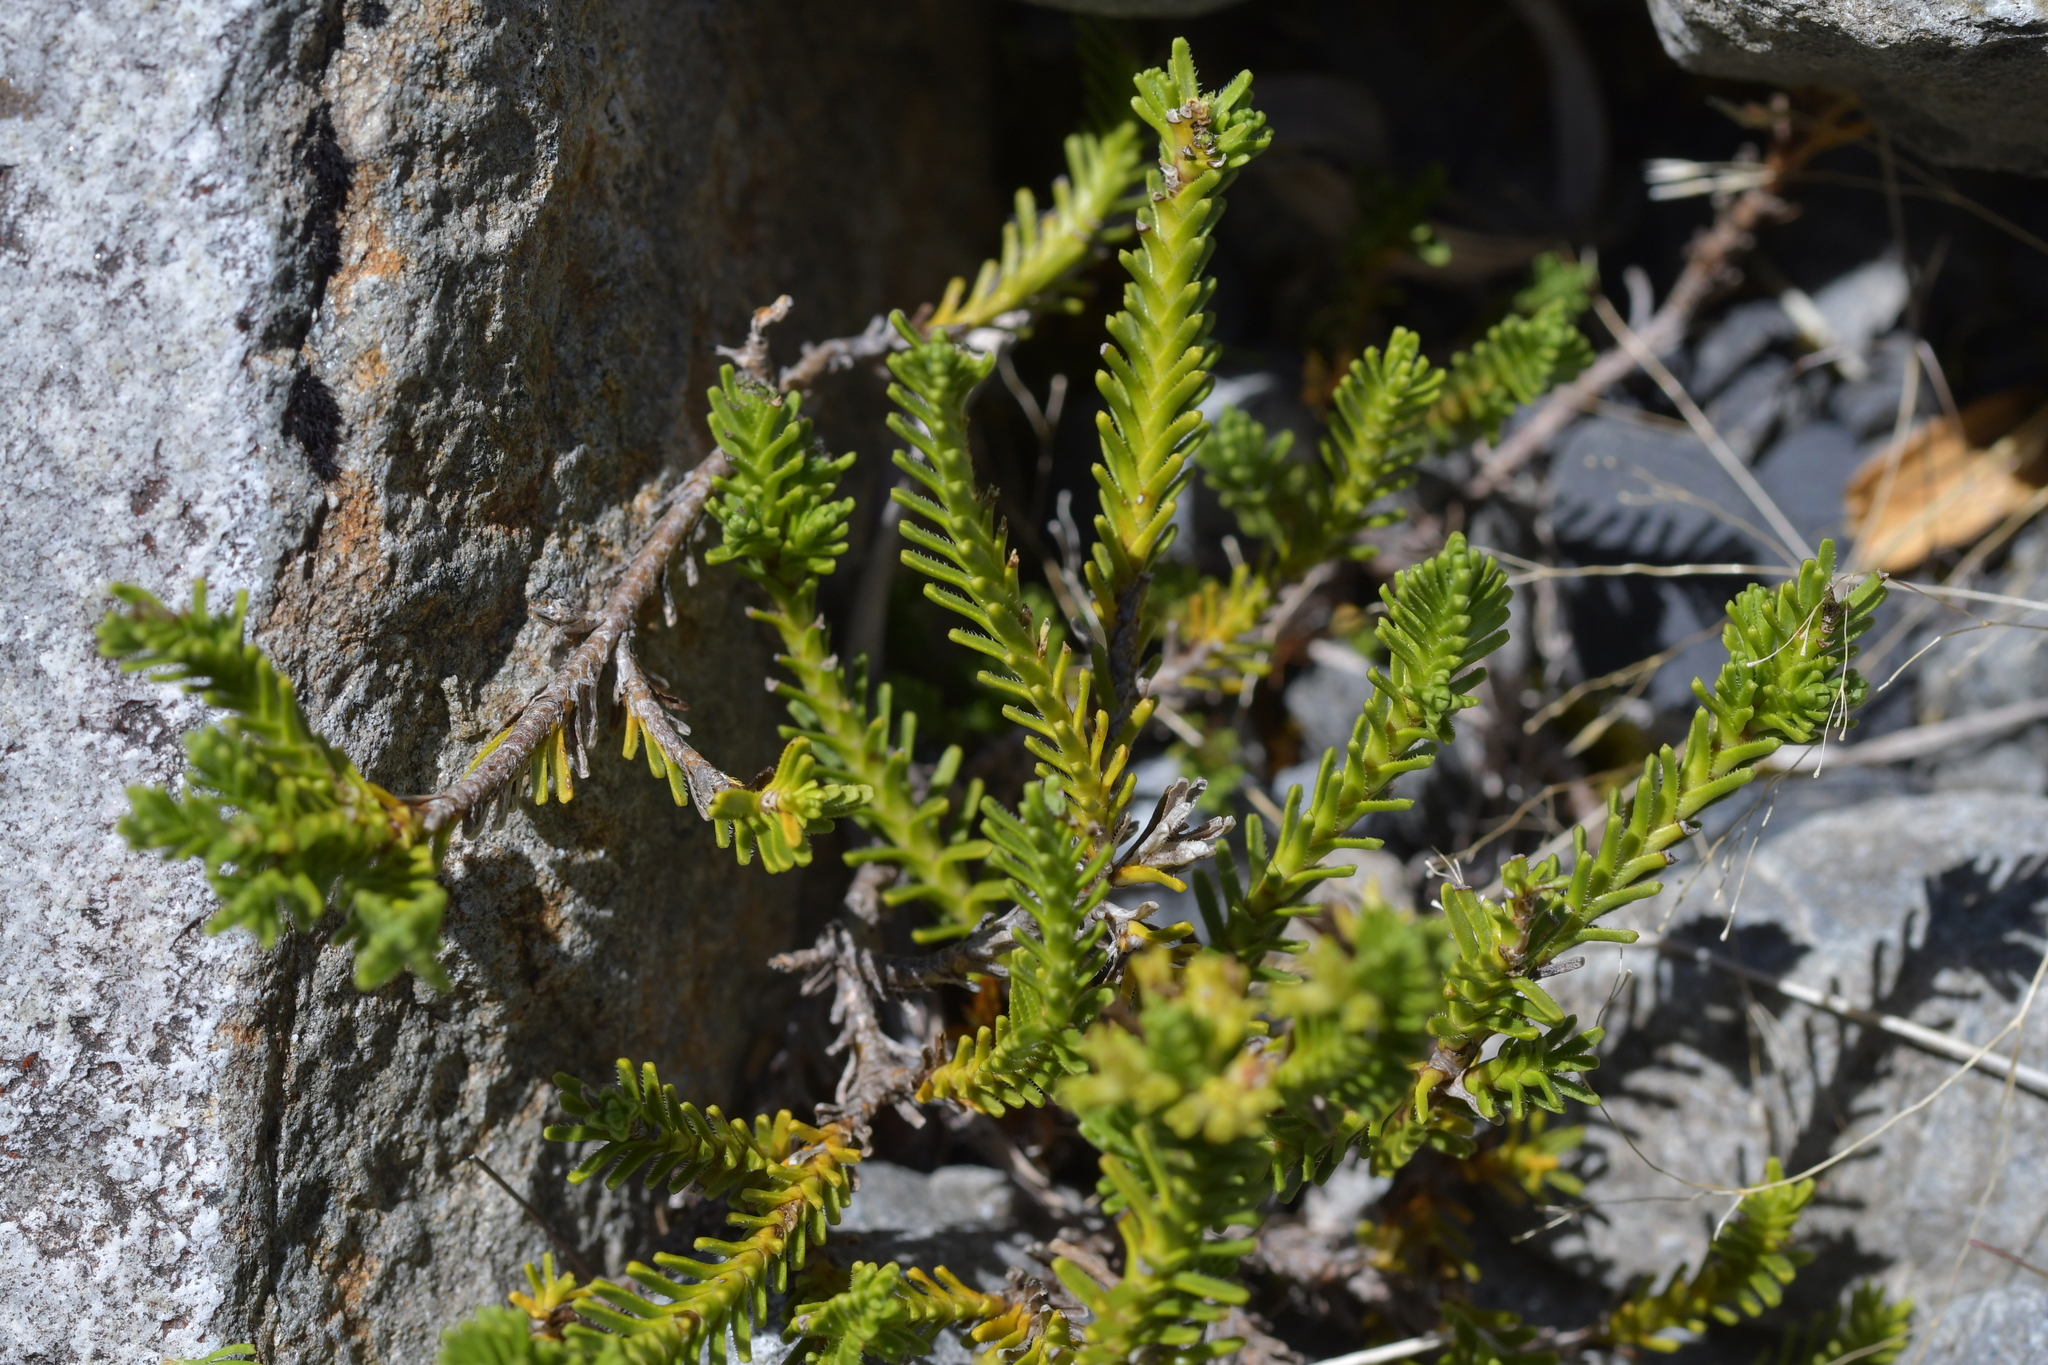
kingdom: Plantae
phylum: Tracheophyta
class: Magnoliopsida
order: Lamiales
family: Plantaginaceae
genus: Veronica
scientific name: Veronica hookeri
